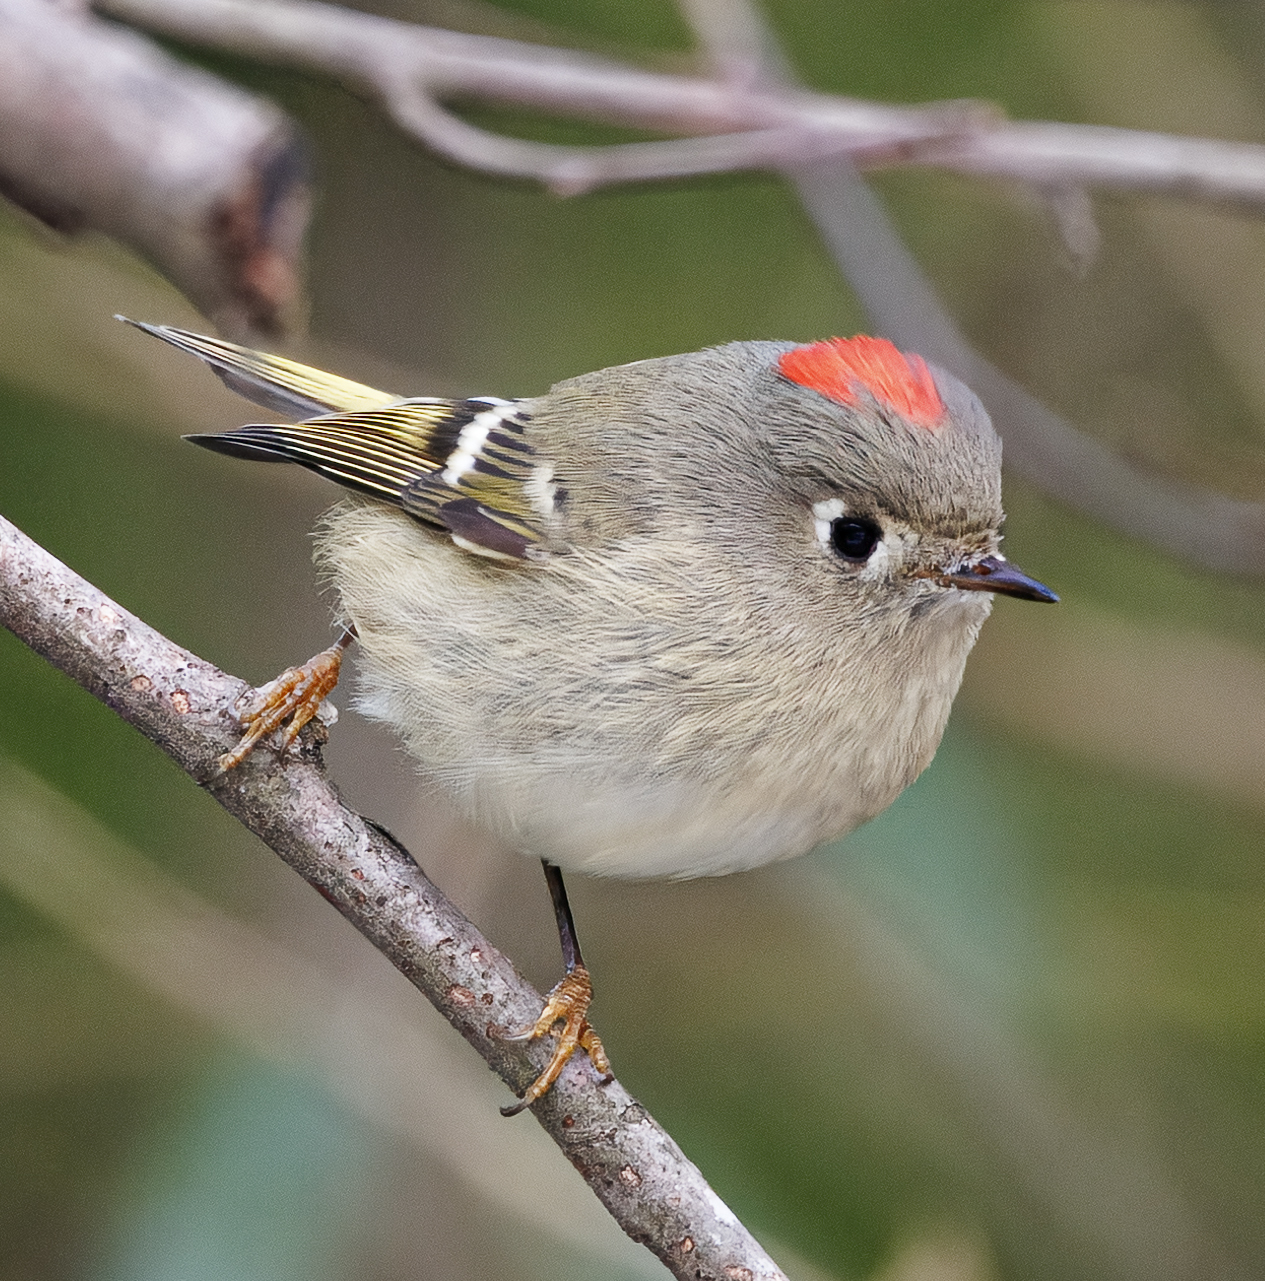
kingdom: Animalia
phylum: Chordata
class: Aves
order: Passeriformes
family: Regulidae
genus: Regulus
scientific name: Regulus calendula
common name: Ruby-crowned kinglet
